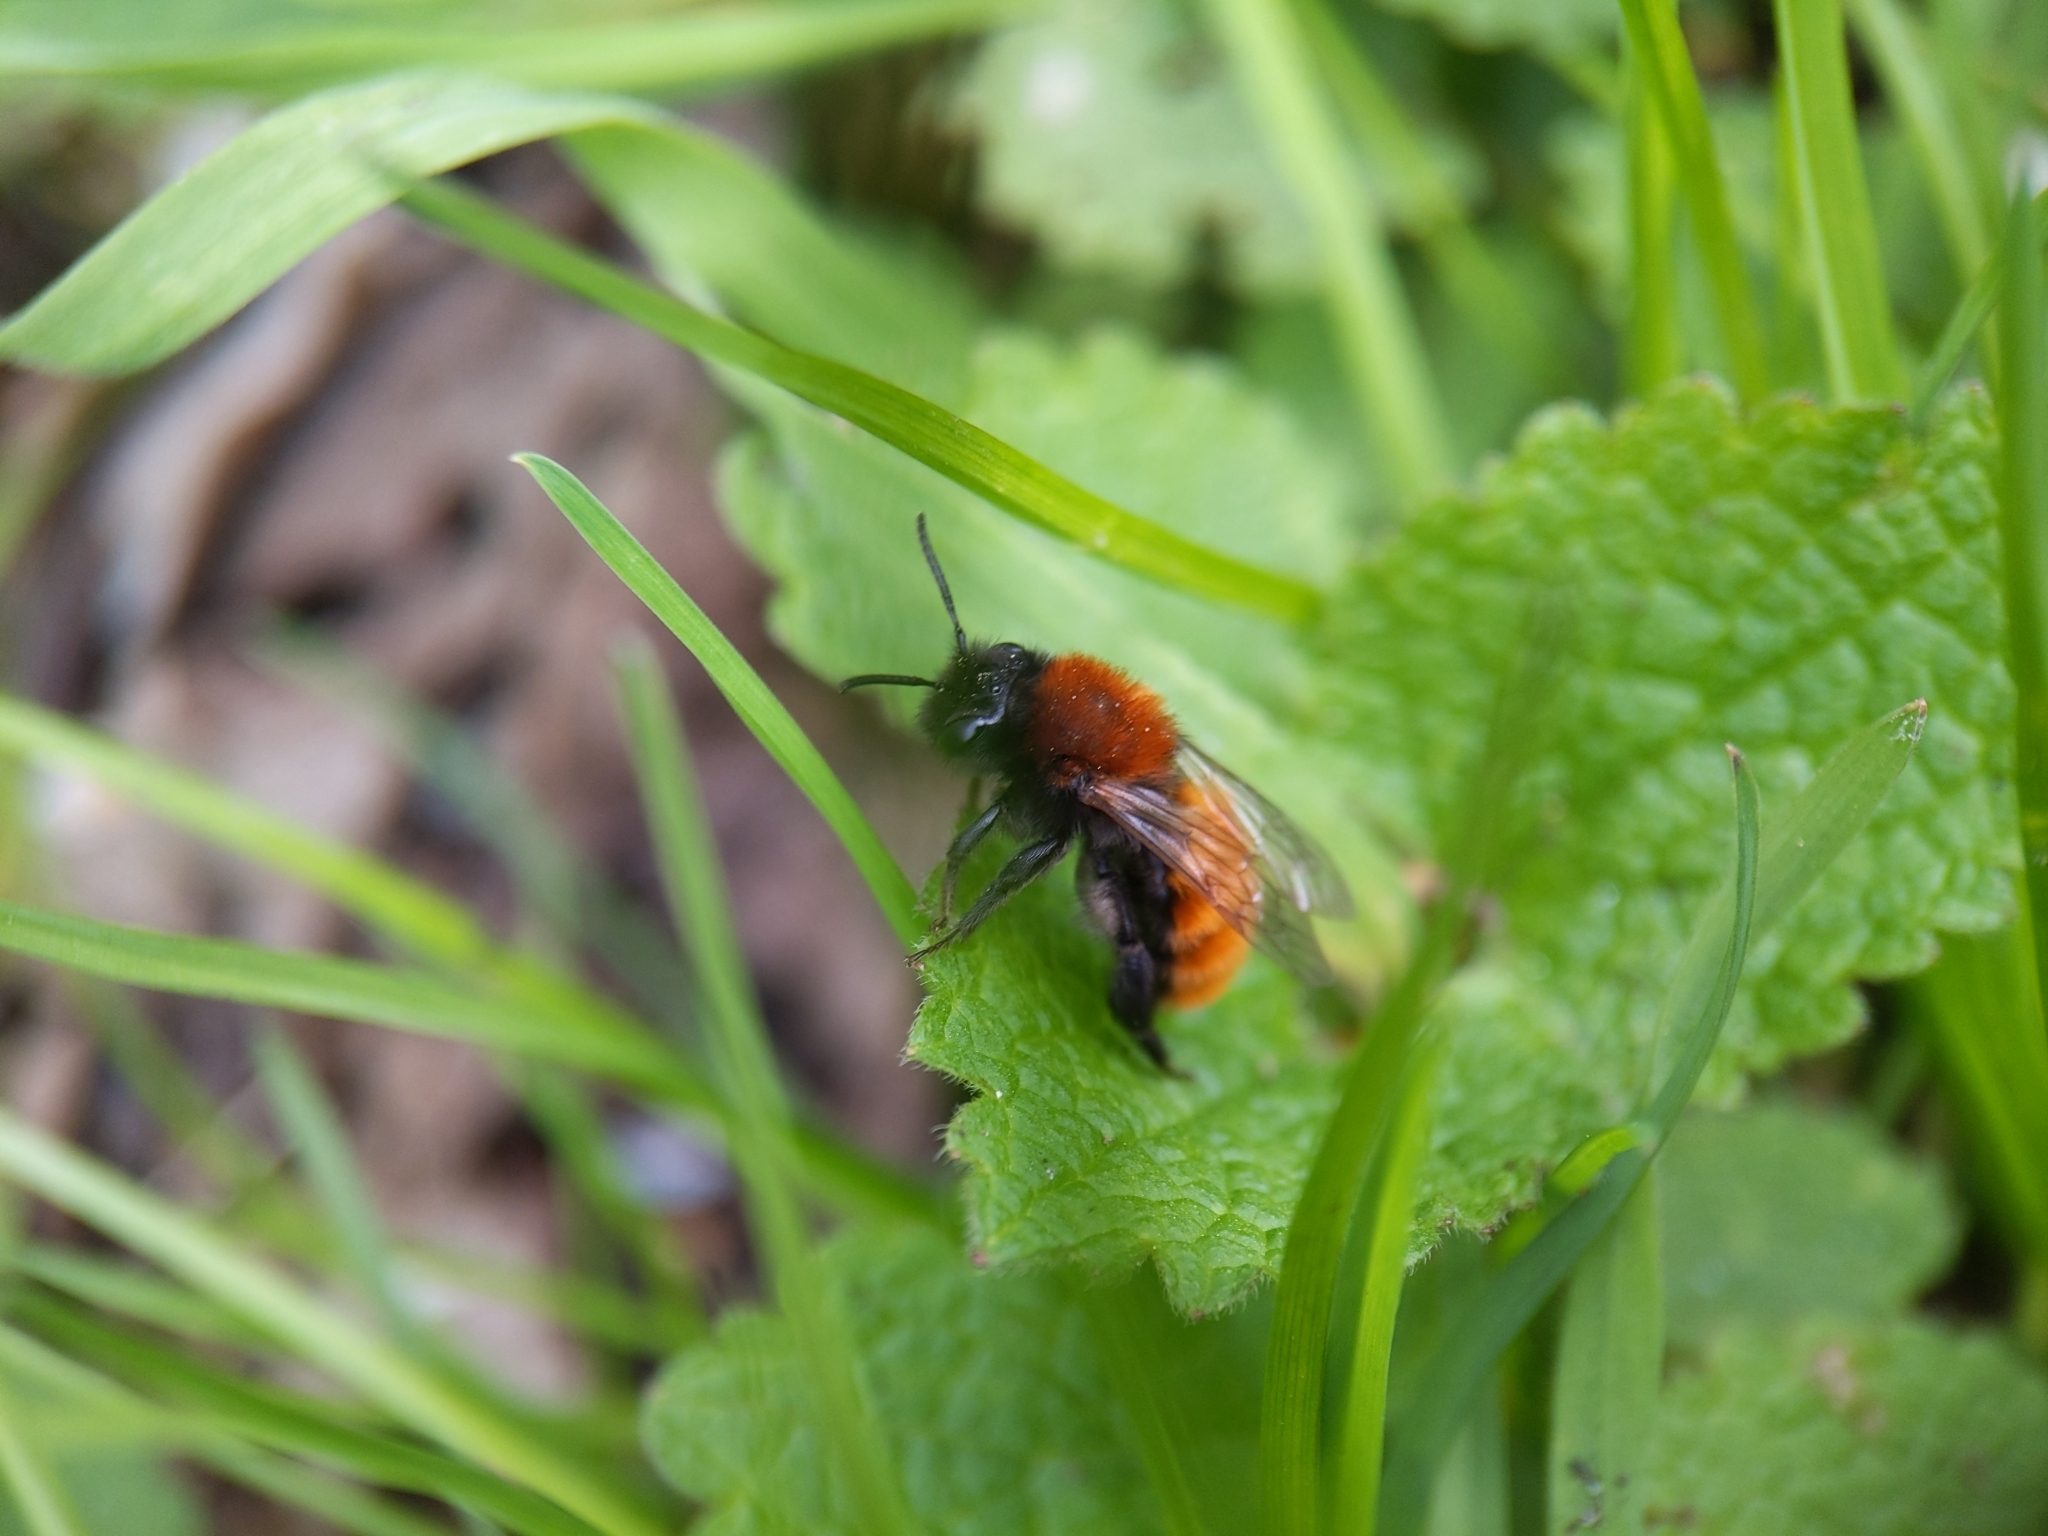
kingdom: Animalia
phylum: Arthropoda
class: Insecta
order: Hymenoptera
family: Andrenidae
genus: Andrena
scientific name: Andrena fulva
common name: Tawny mining bee
